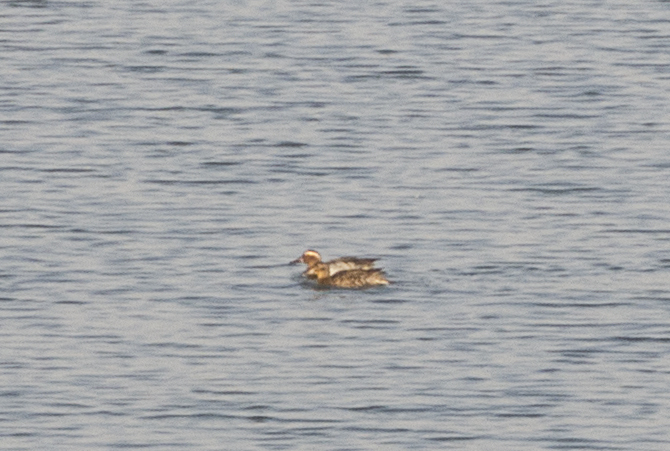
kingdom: Animalia
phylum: Chordata
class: Aves
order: Anseriformes
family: Anatidae
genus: Spatula
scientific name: Spatula querquedula
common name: Garganey
